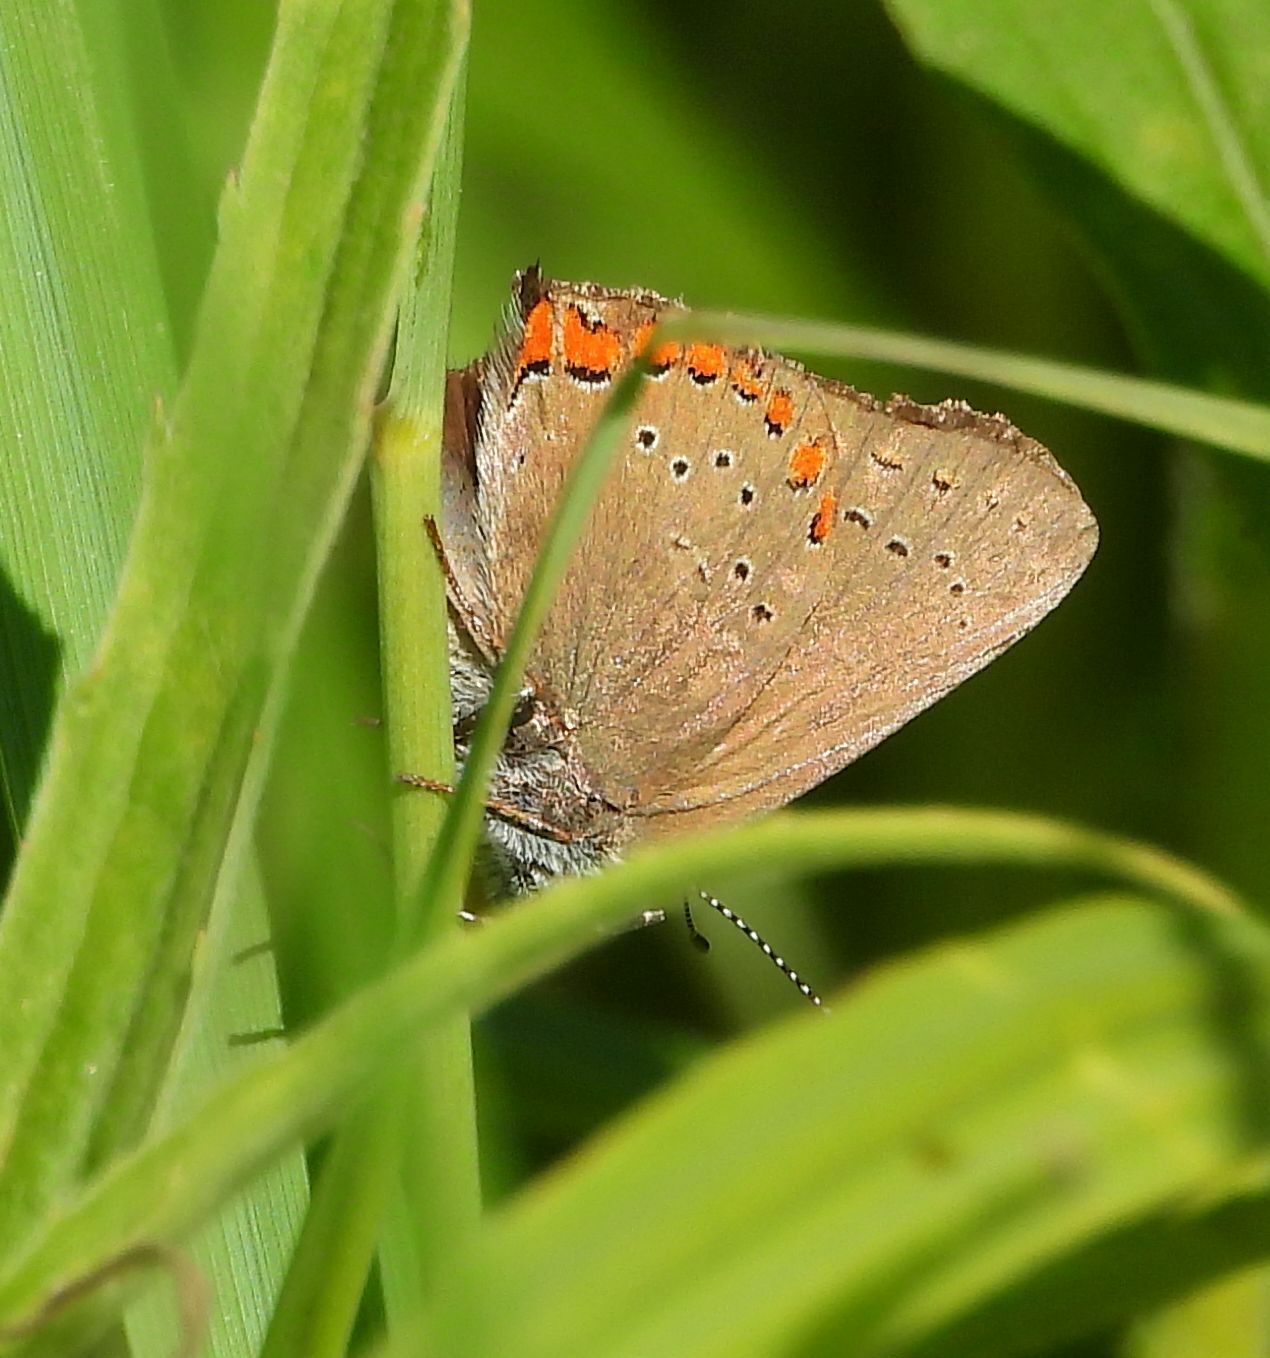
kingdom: Animalia
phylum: Arthropoda
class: Insecta
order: Lepidoptera
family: Lycaenidae
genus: Harkenclenus
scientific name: Harkenclenus titus
